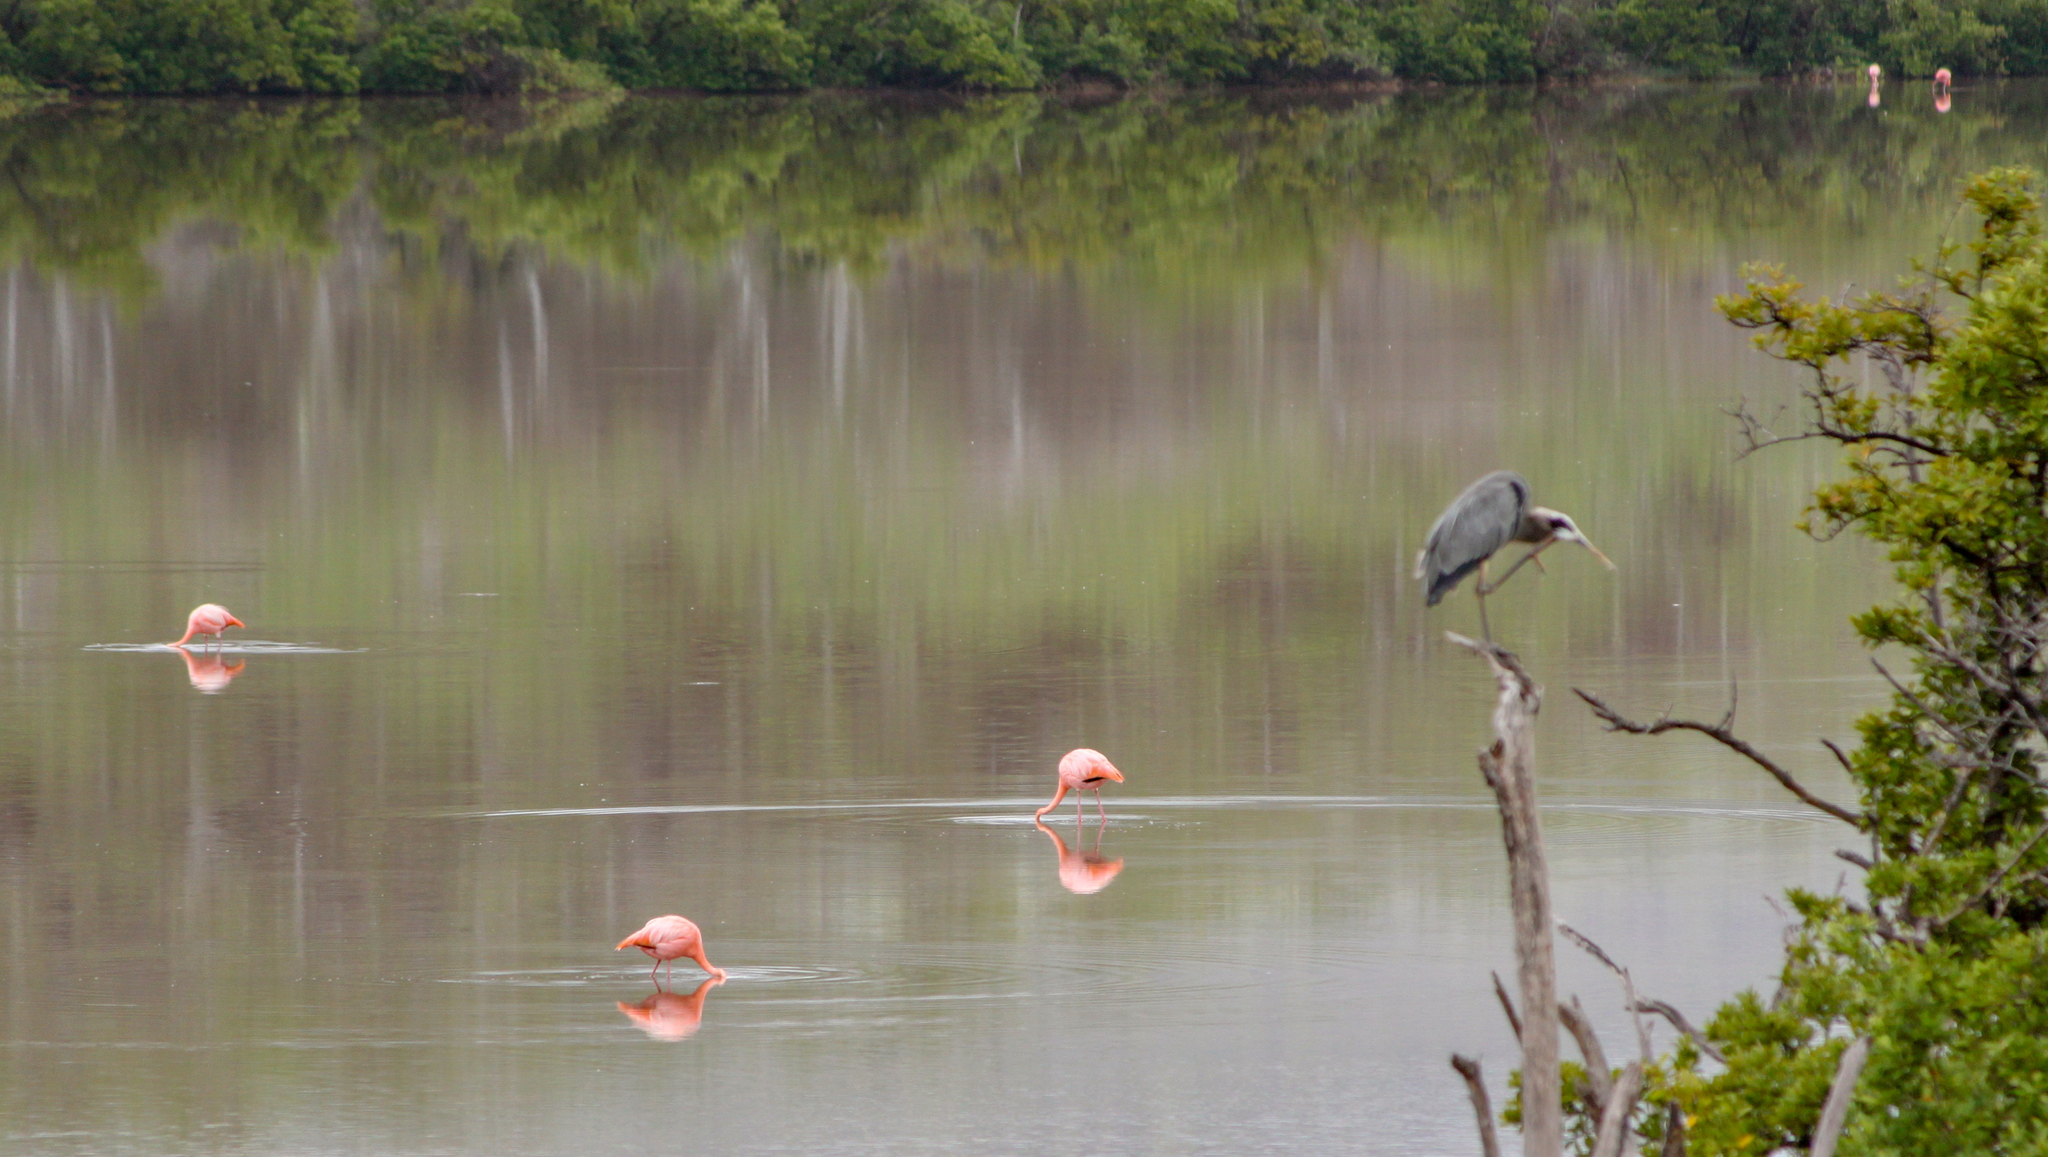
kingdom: Animalia
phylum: Chordata
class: Aves
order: Phoenicopteriformes
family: Phoenicopteridae
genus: Phoenicopterus
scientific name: Phoenicopterus ruber
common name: American flamingo
